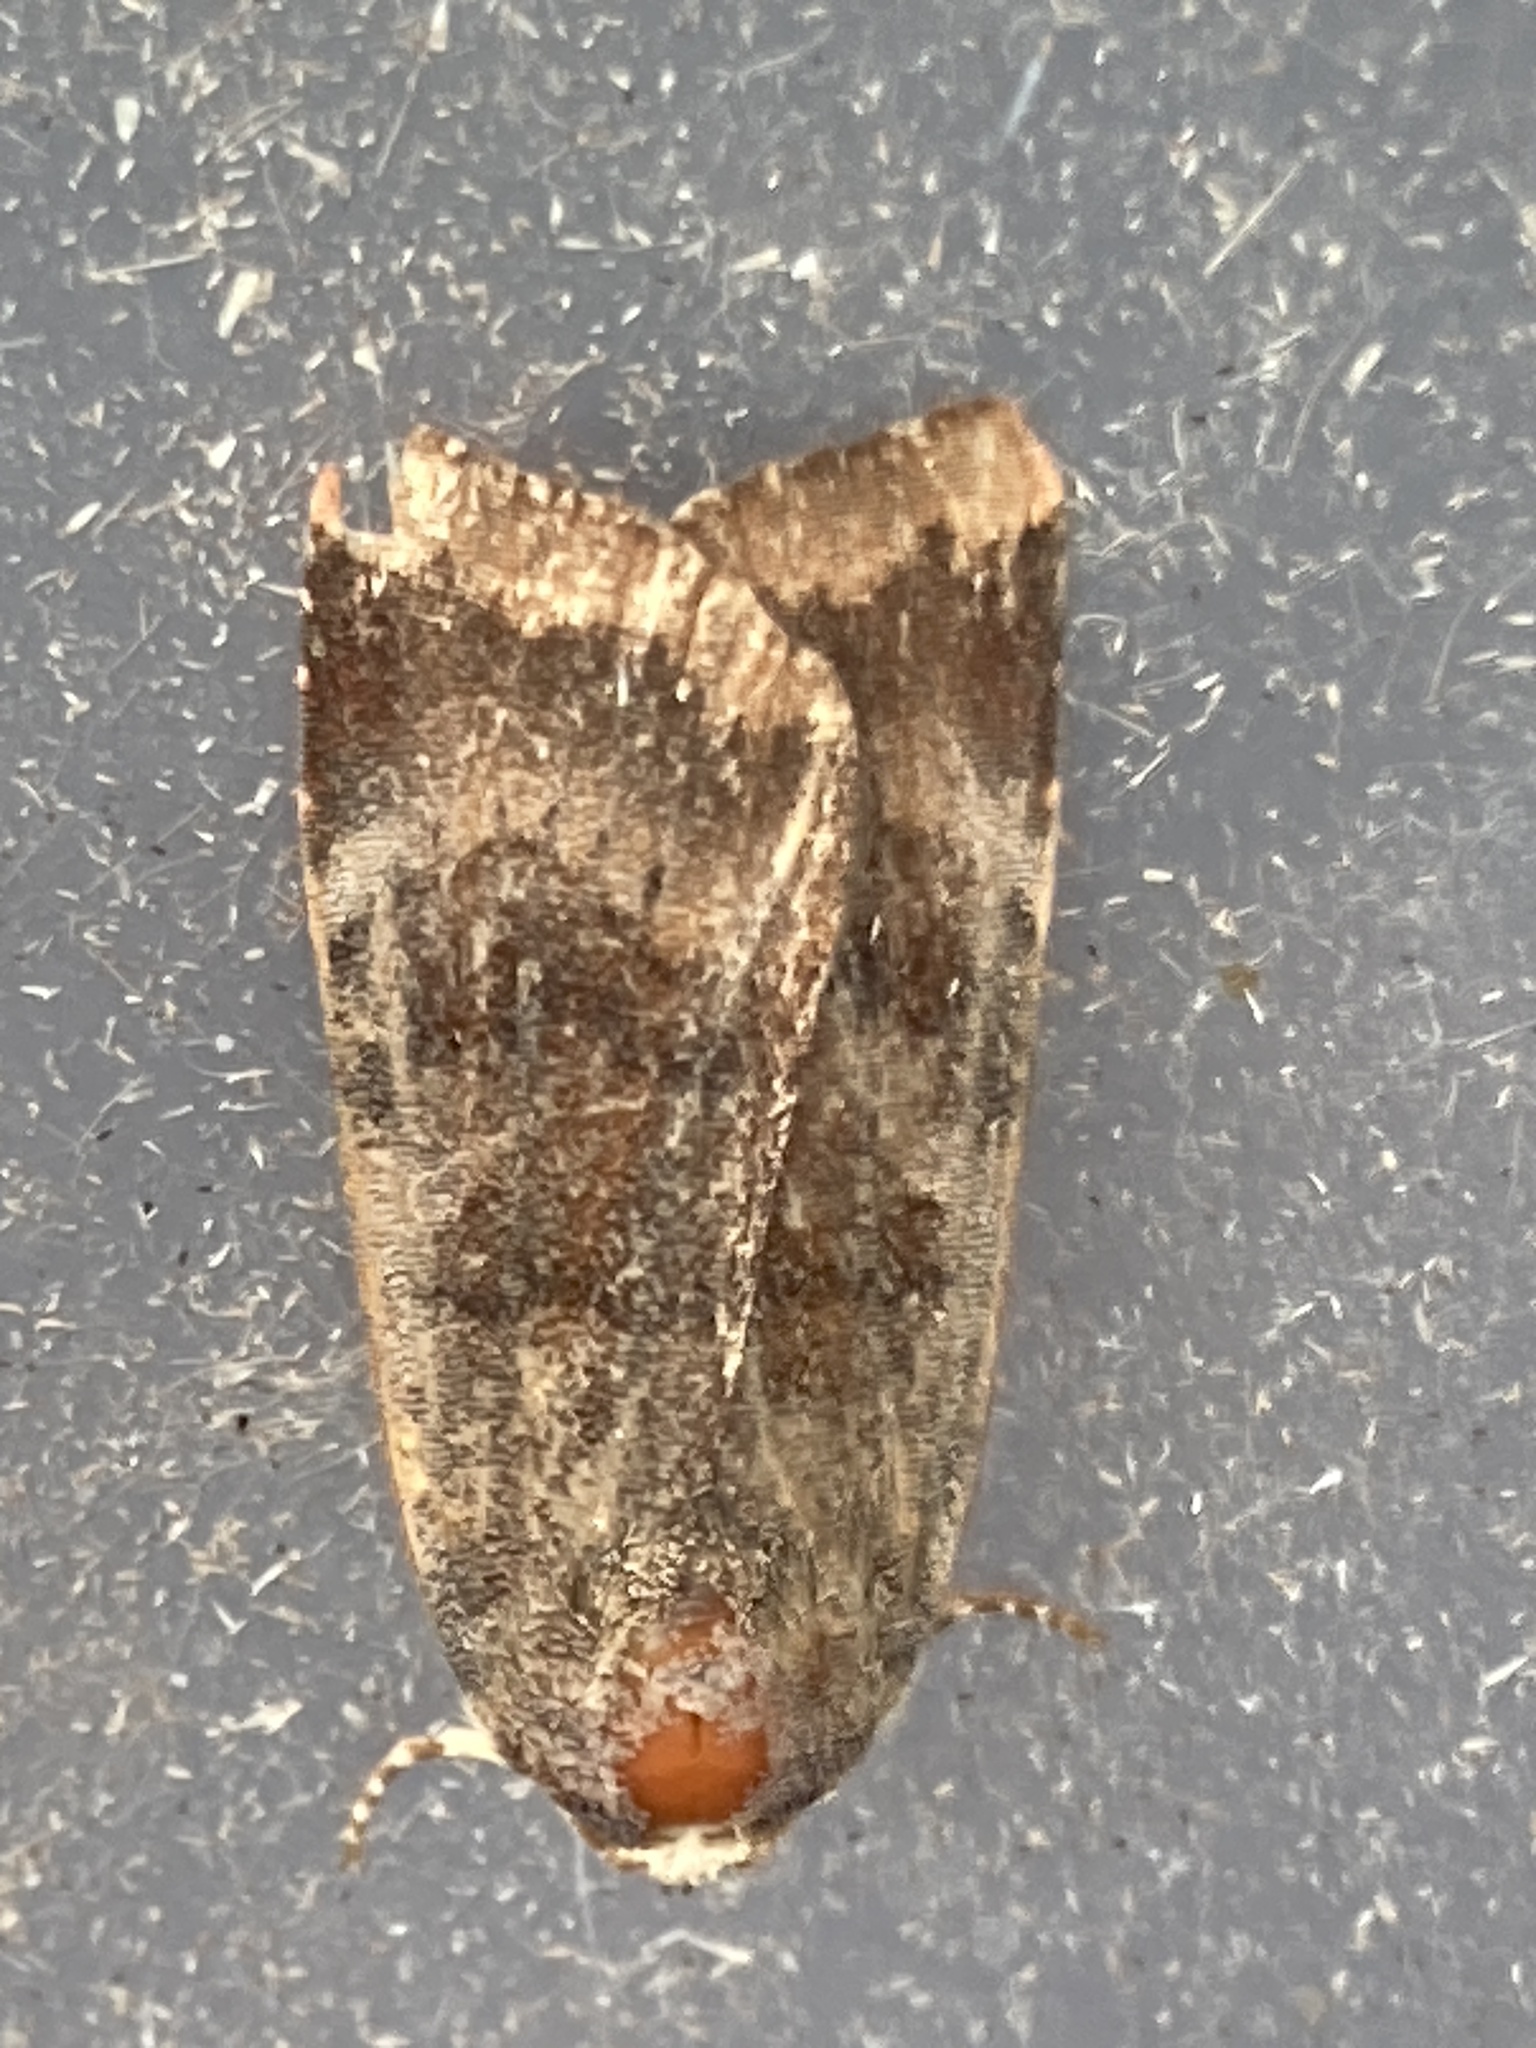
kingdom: Animalia
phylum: Arthropoda
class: Insecta
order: Lepidoptera
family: Noctuidae
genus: Noctua
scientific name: Noctua janthe
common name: Lesser broad-bordered yellow underwing
